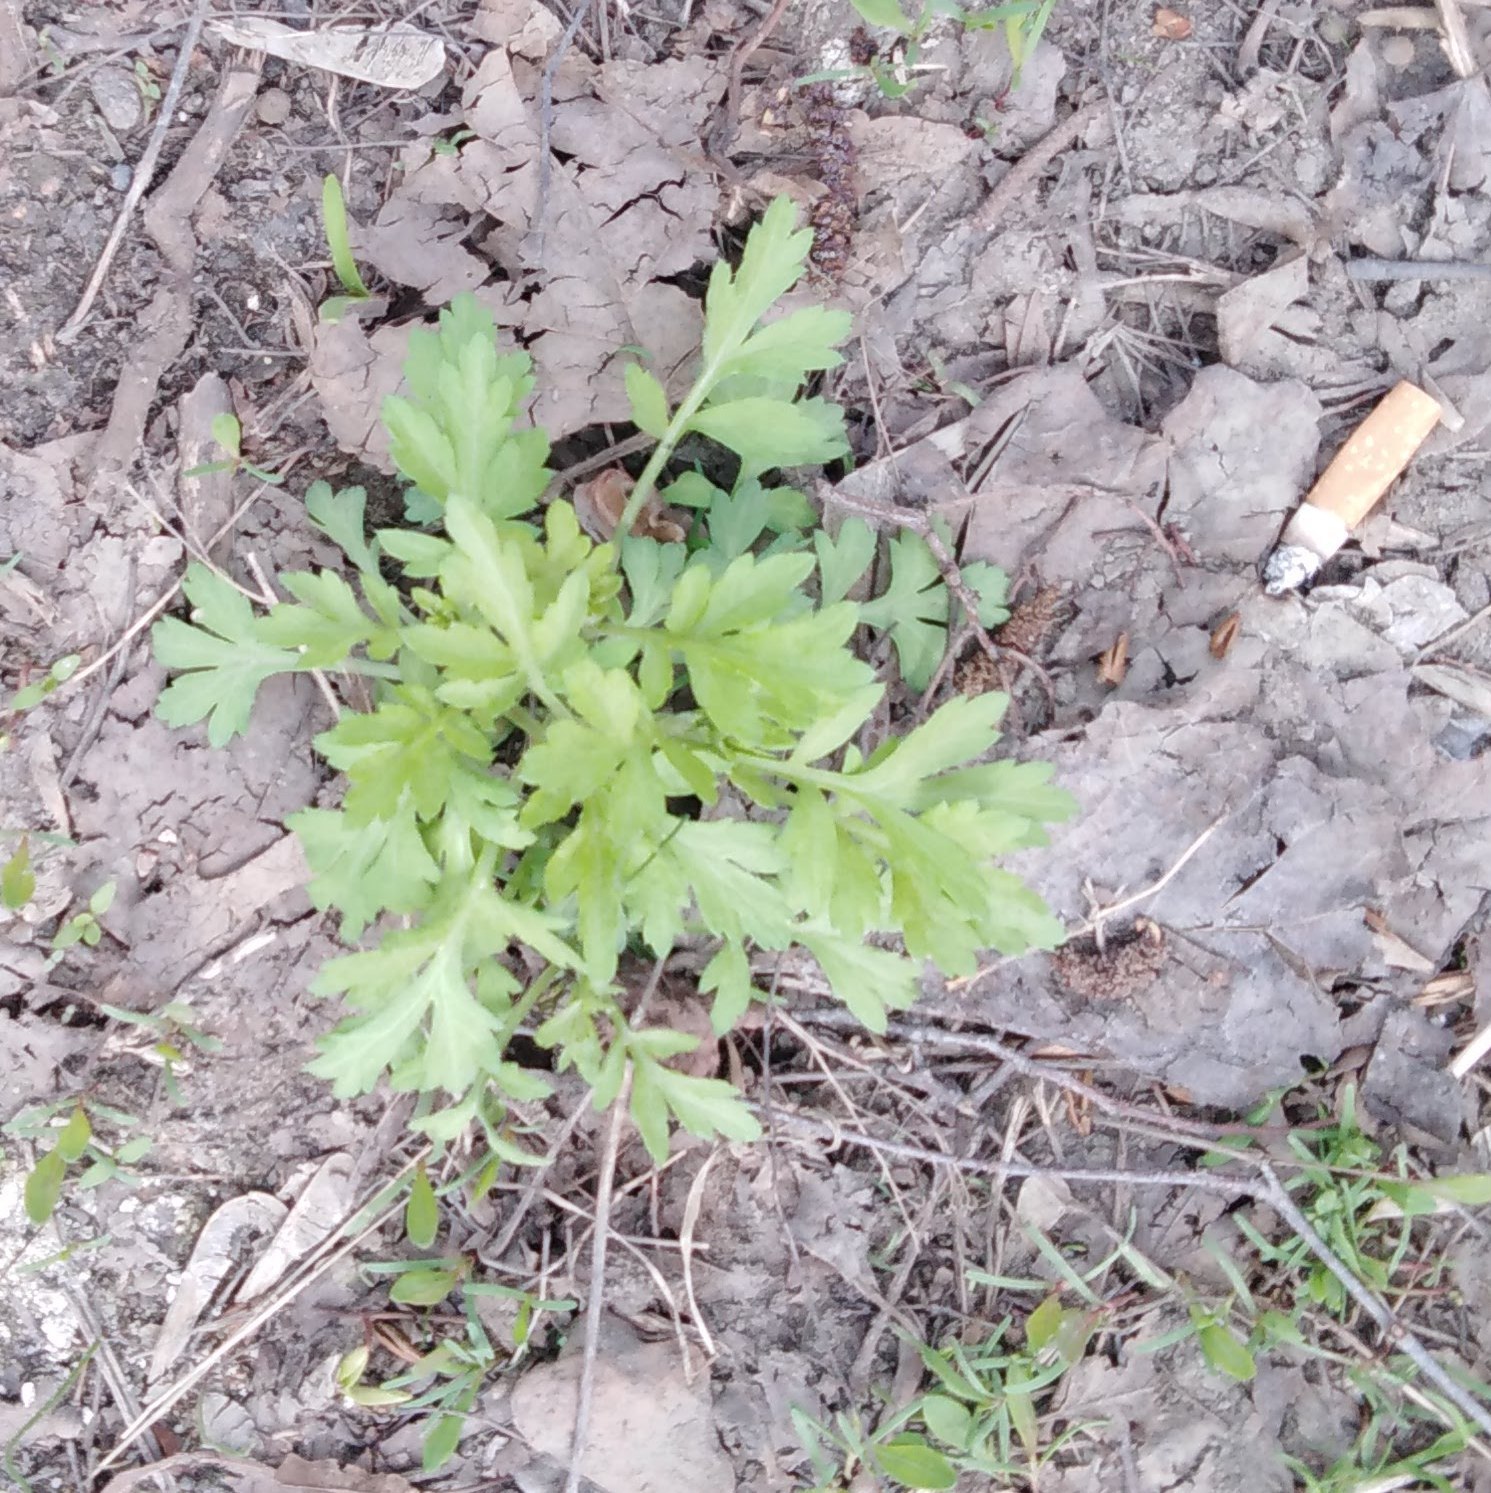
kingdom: Plantae
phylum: Tracheophyta
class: Magnoliopsida
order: Asterales
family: Asteraceae
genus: Artemisia
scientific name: Artemisia vulgaris
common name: Mugwort
